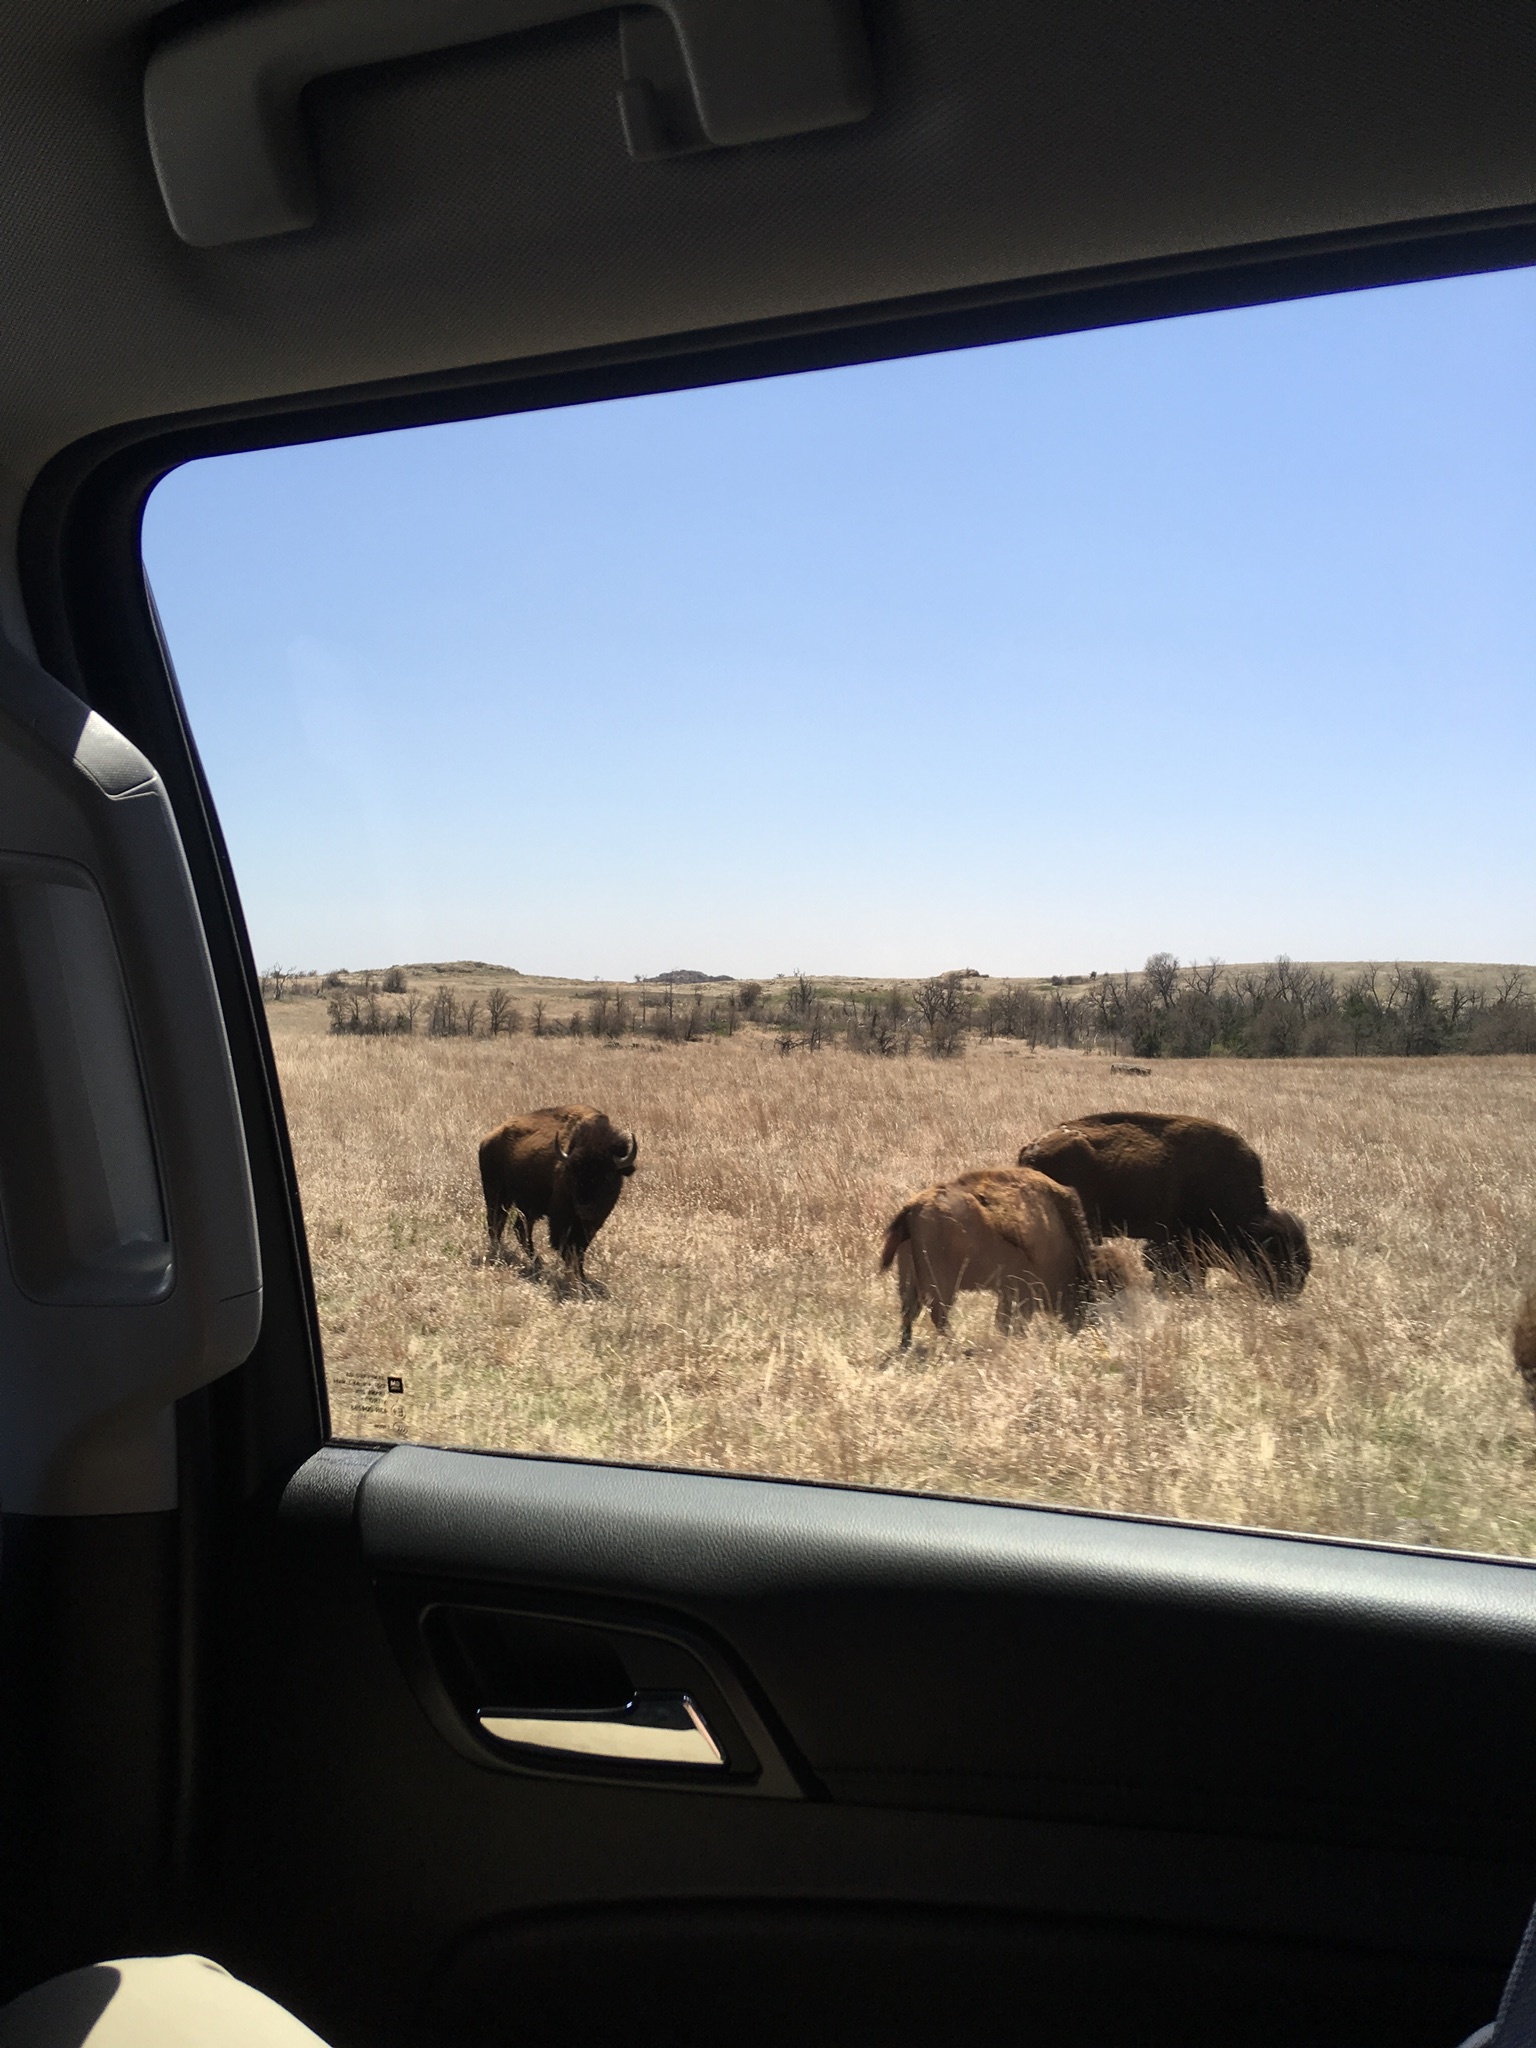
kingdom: Animalia
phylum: Chordata
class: Mammalia
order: Artiodactyla
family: Bovidae
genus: Bison
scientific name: Bison bison
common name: American bison
